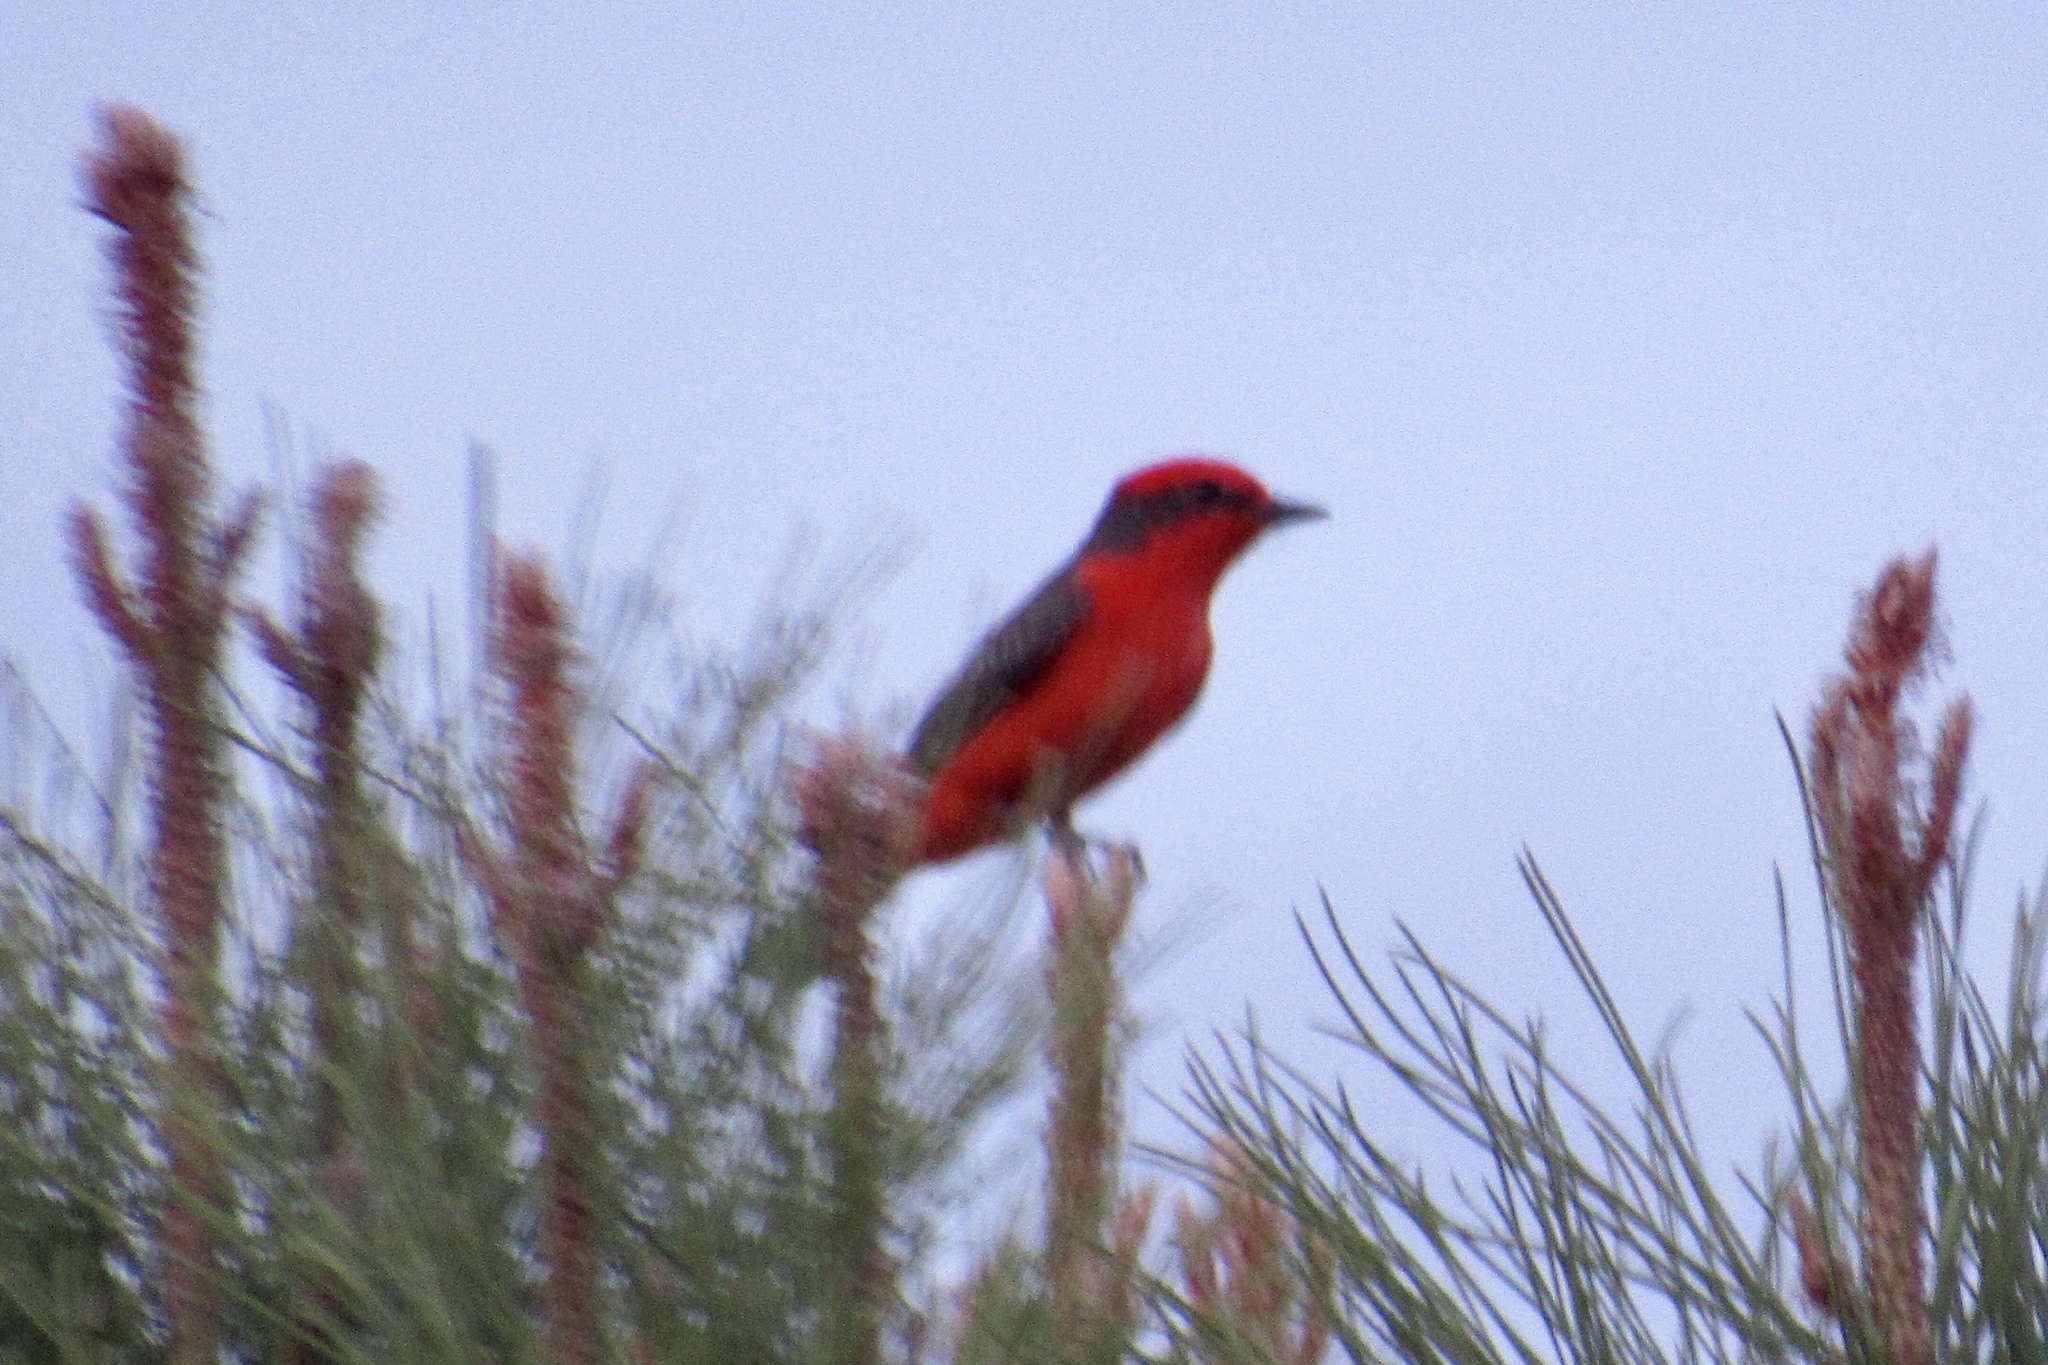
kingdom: Animalia
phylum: Chordata
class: Aves
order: Passeriformes
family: Tyrannidae
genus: Pyrocephalus
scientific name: Pyrocephalus rubinus
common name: Vermilion flycatcher
